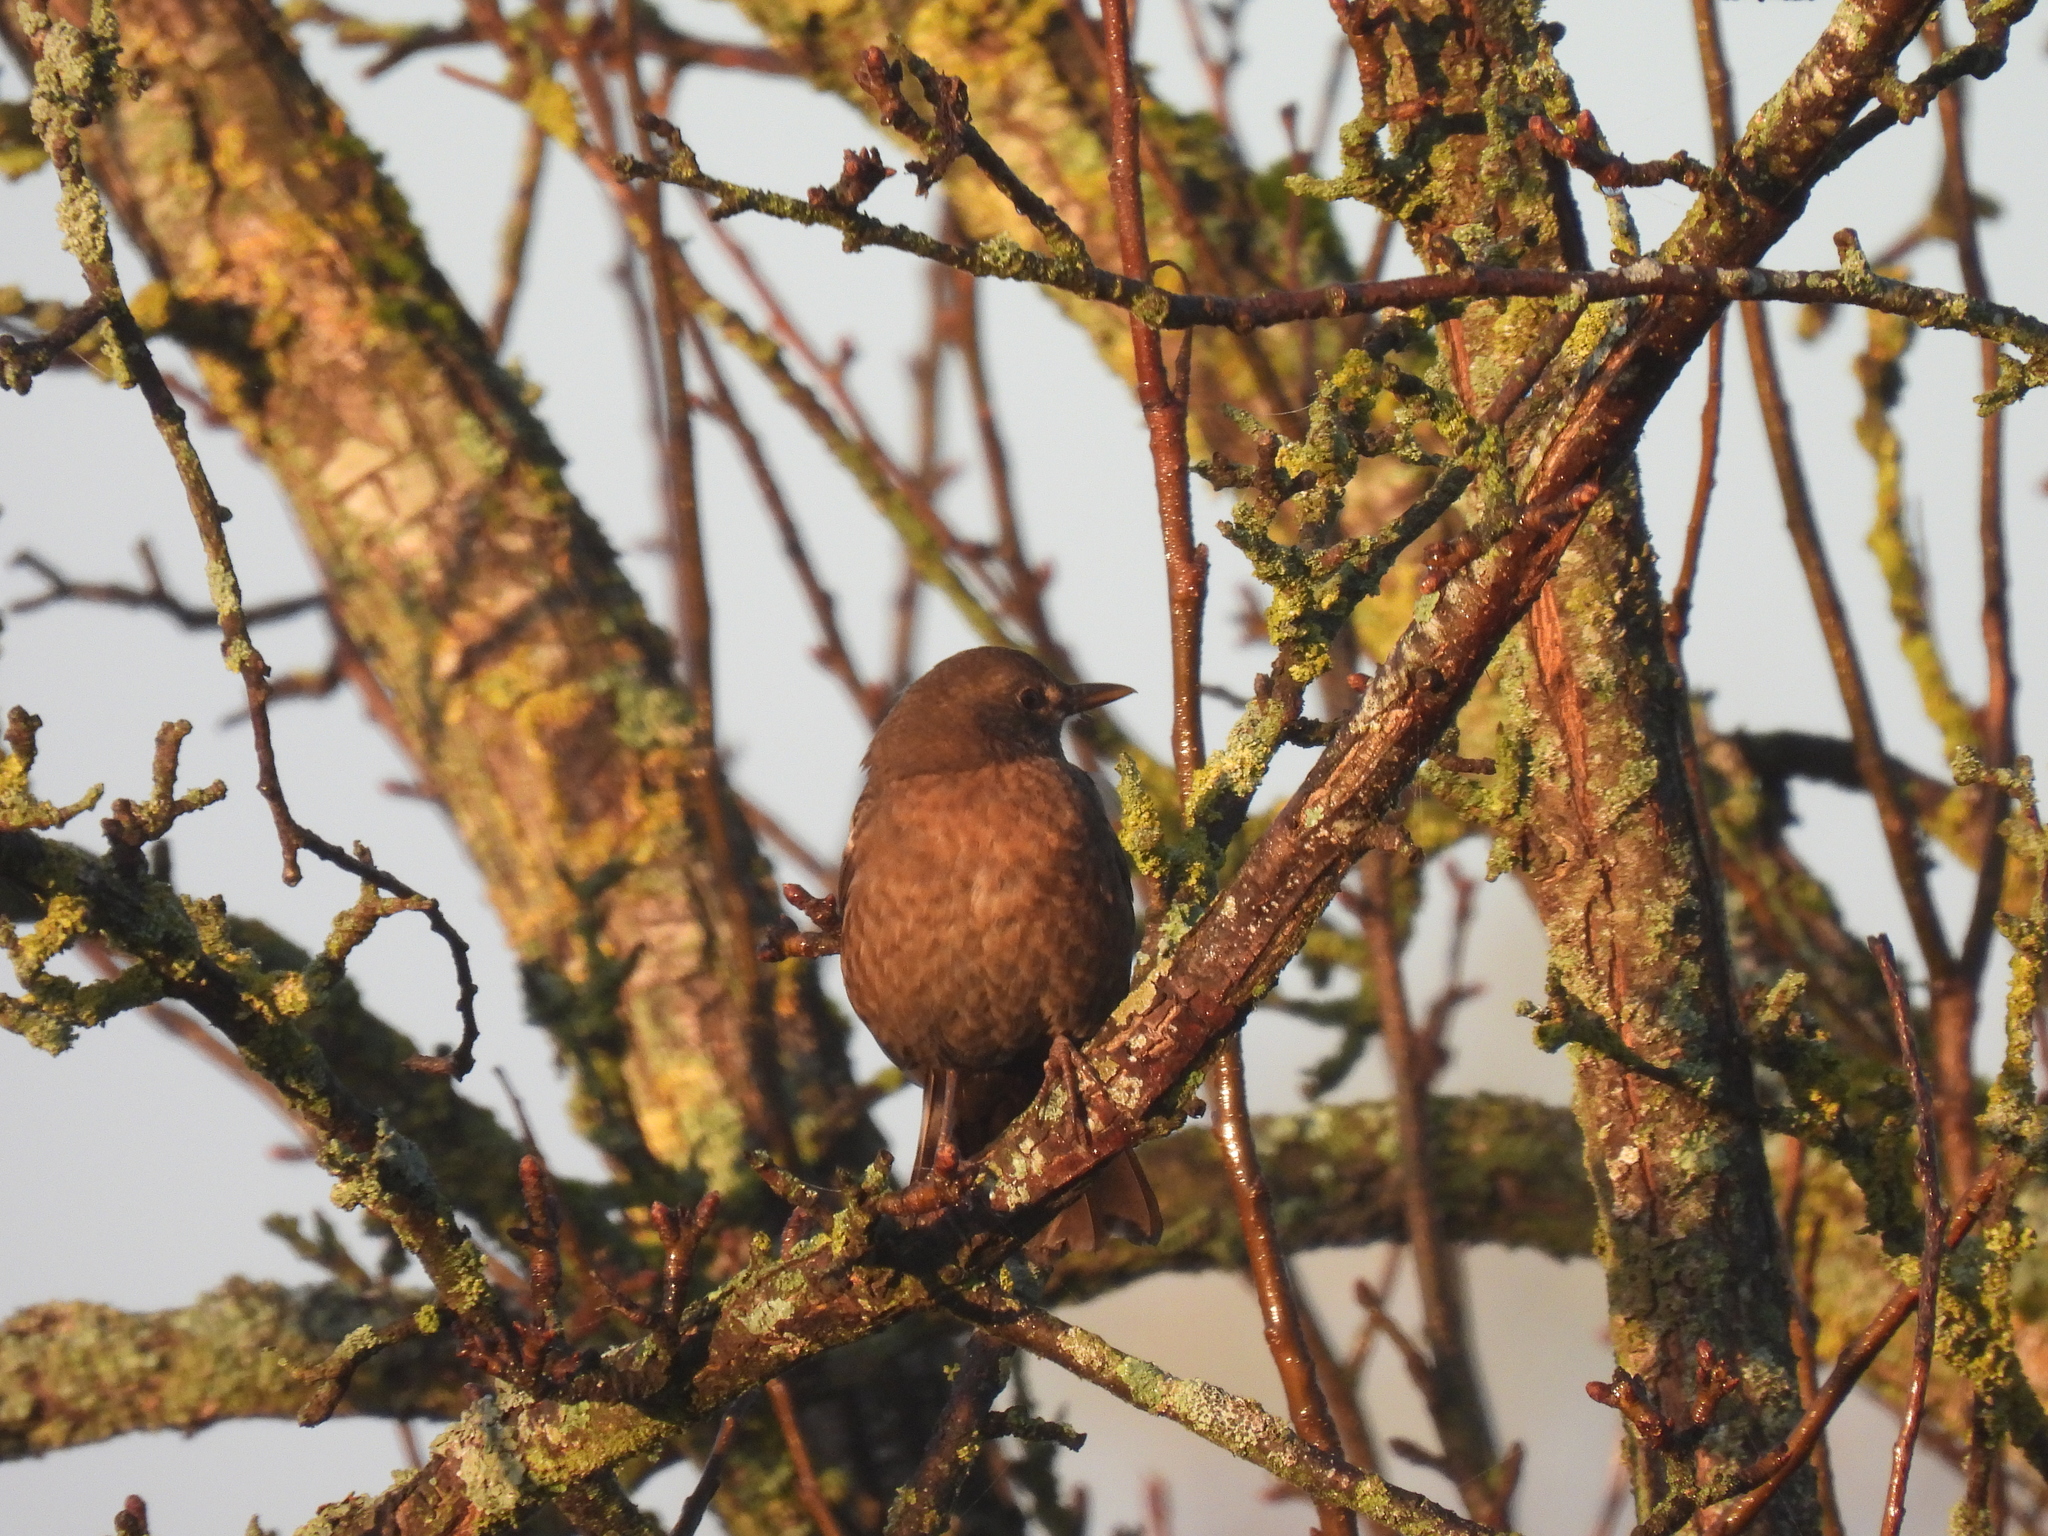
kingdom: Animalia
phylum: Chordata
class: Aves
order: Passeriformes
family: Turdidae
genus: Turdus
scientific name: Turdus merula
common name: Common blackbird
